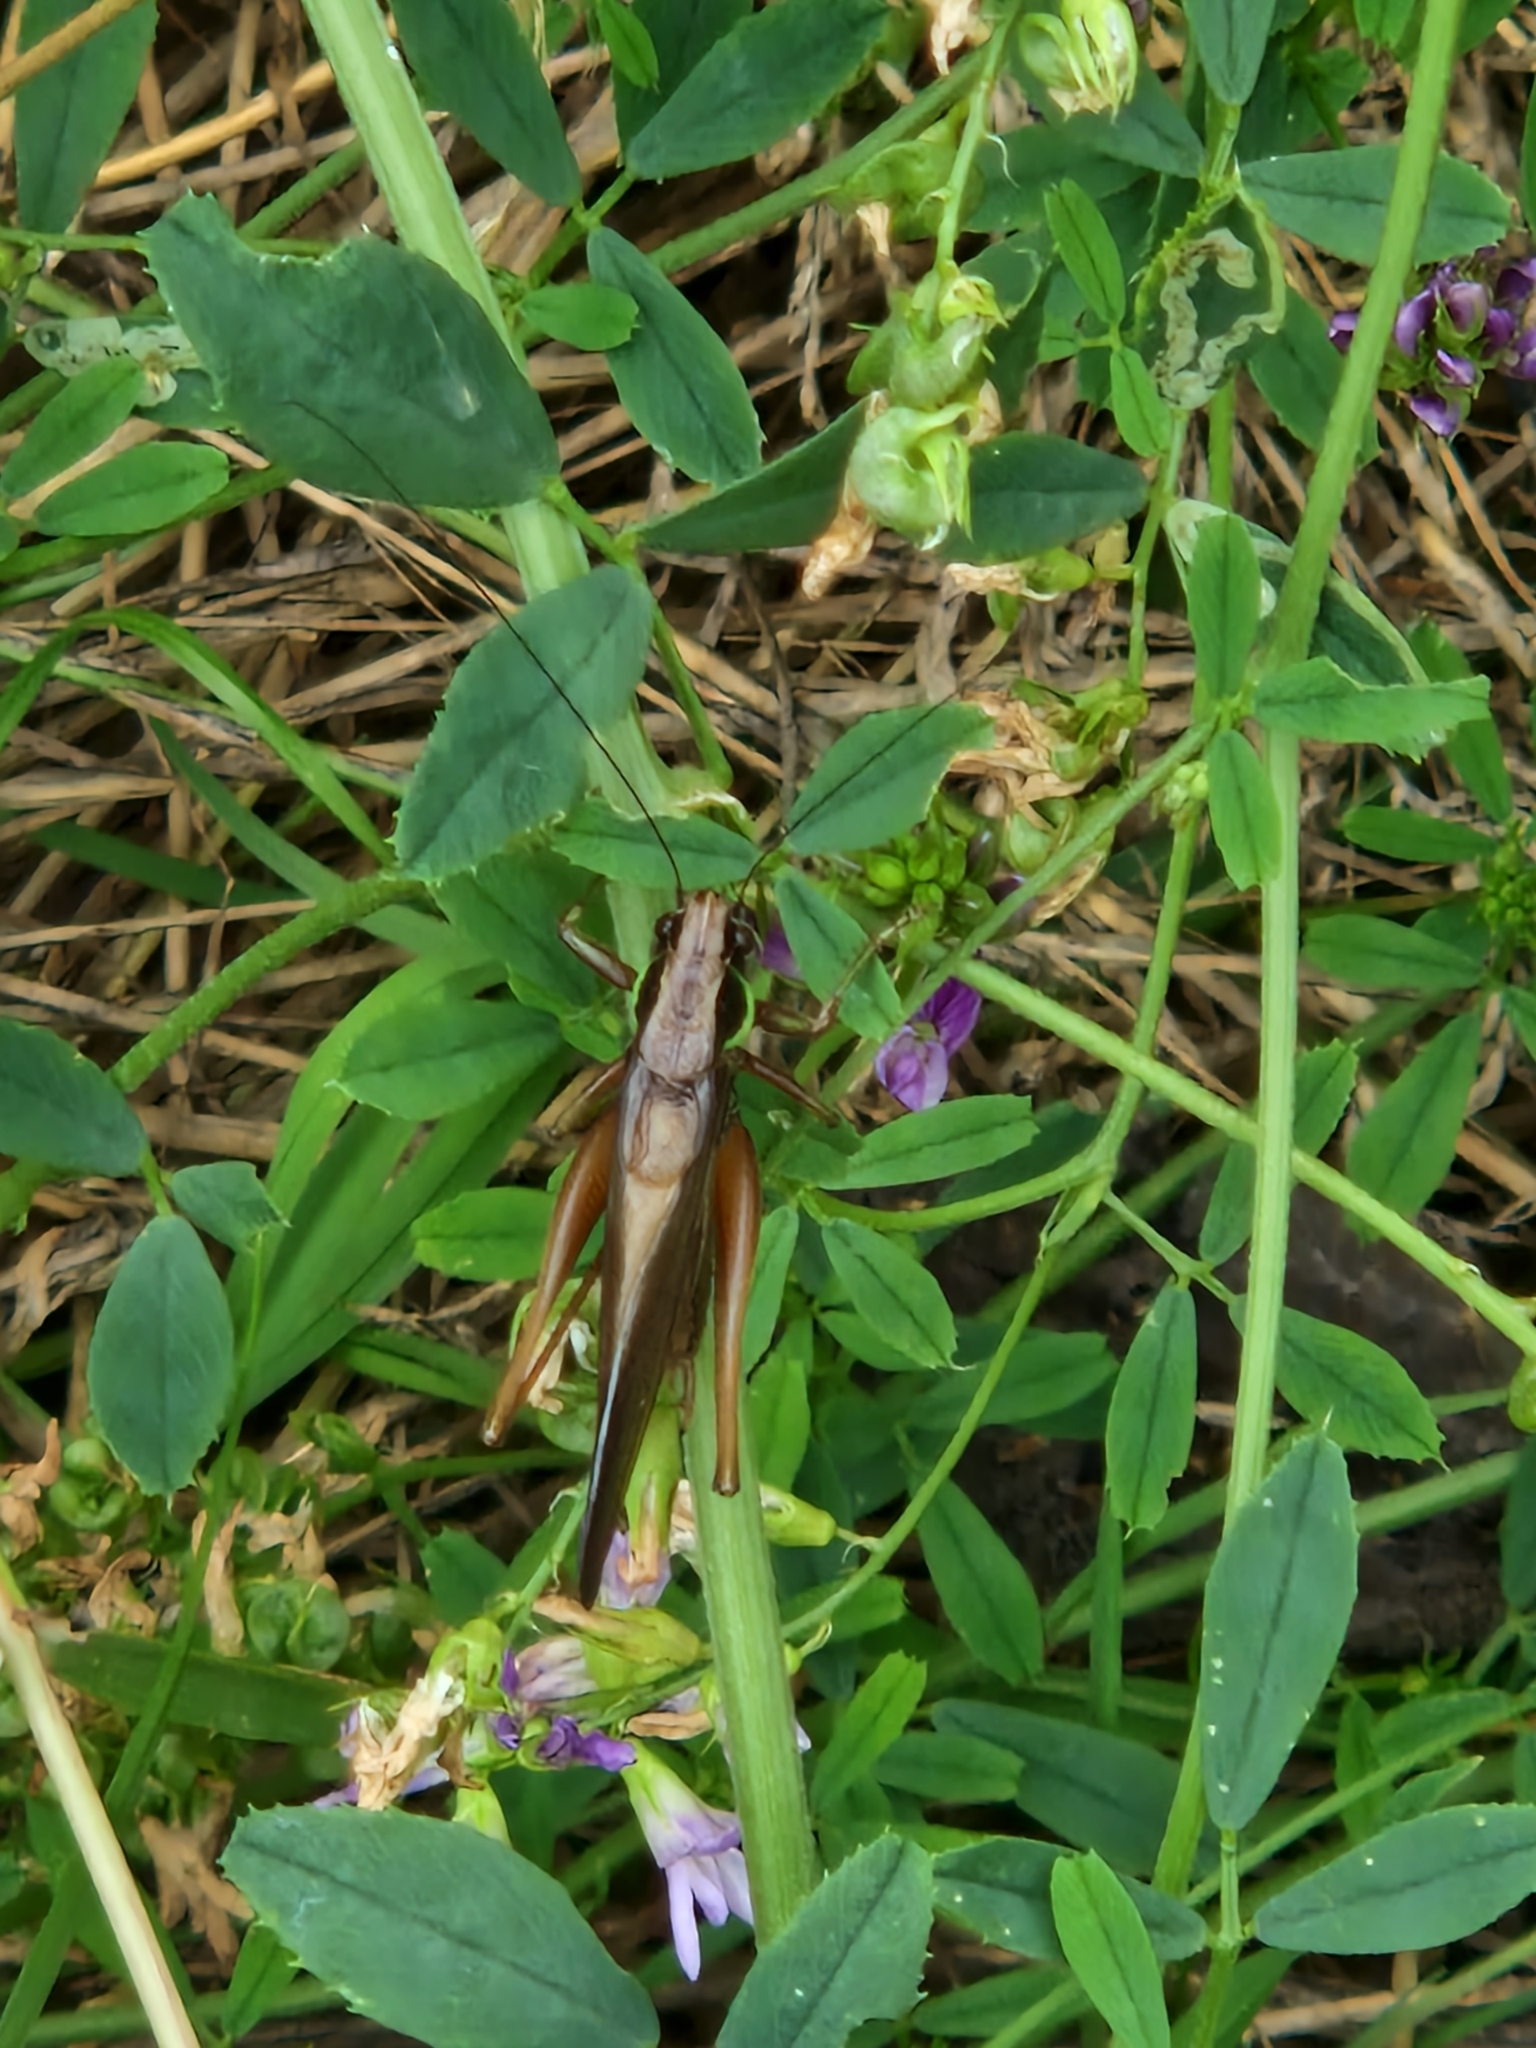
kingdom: Animalia
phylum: Arthropoda
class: Insecta
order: Orthoptera
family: Tettigoniidae
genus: Roeseliana
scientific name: Roeseliana roeselii
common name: Roesel's bush cricket
